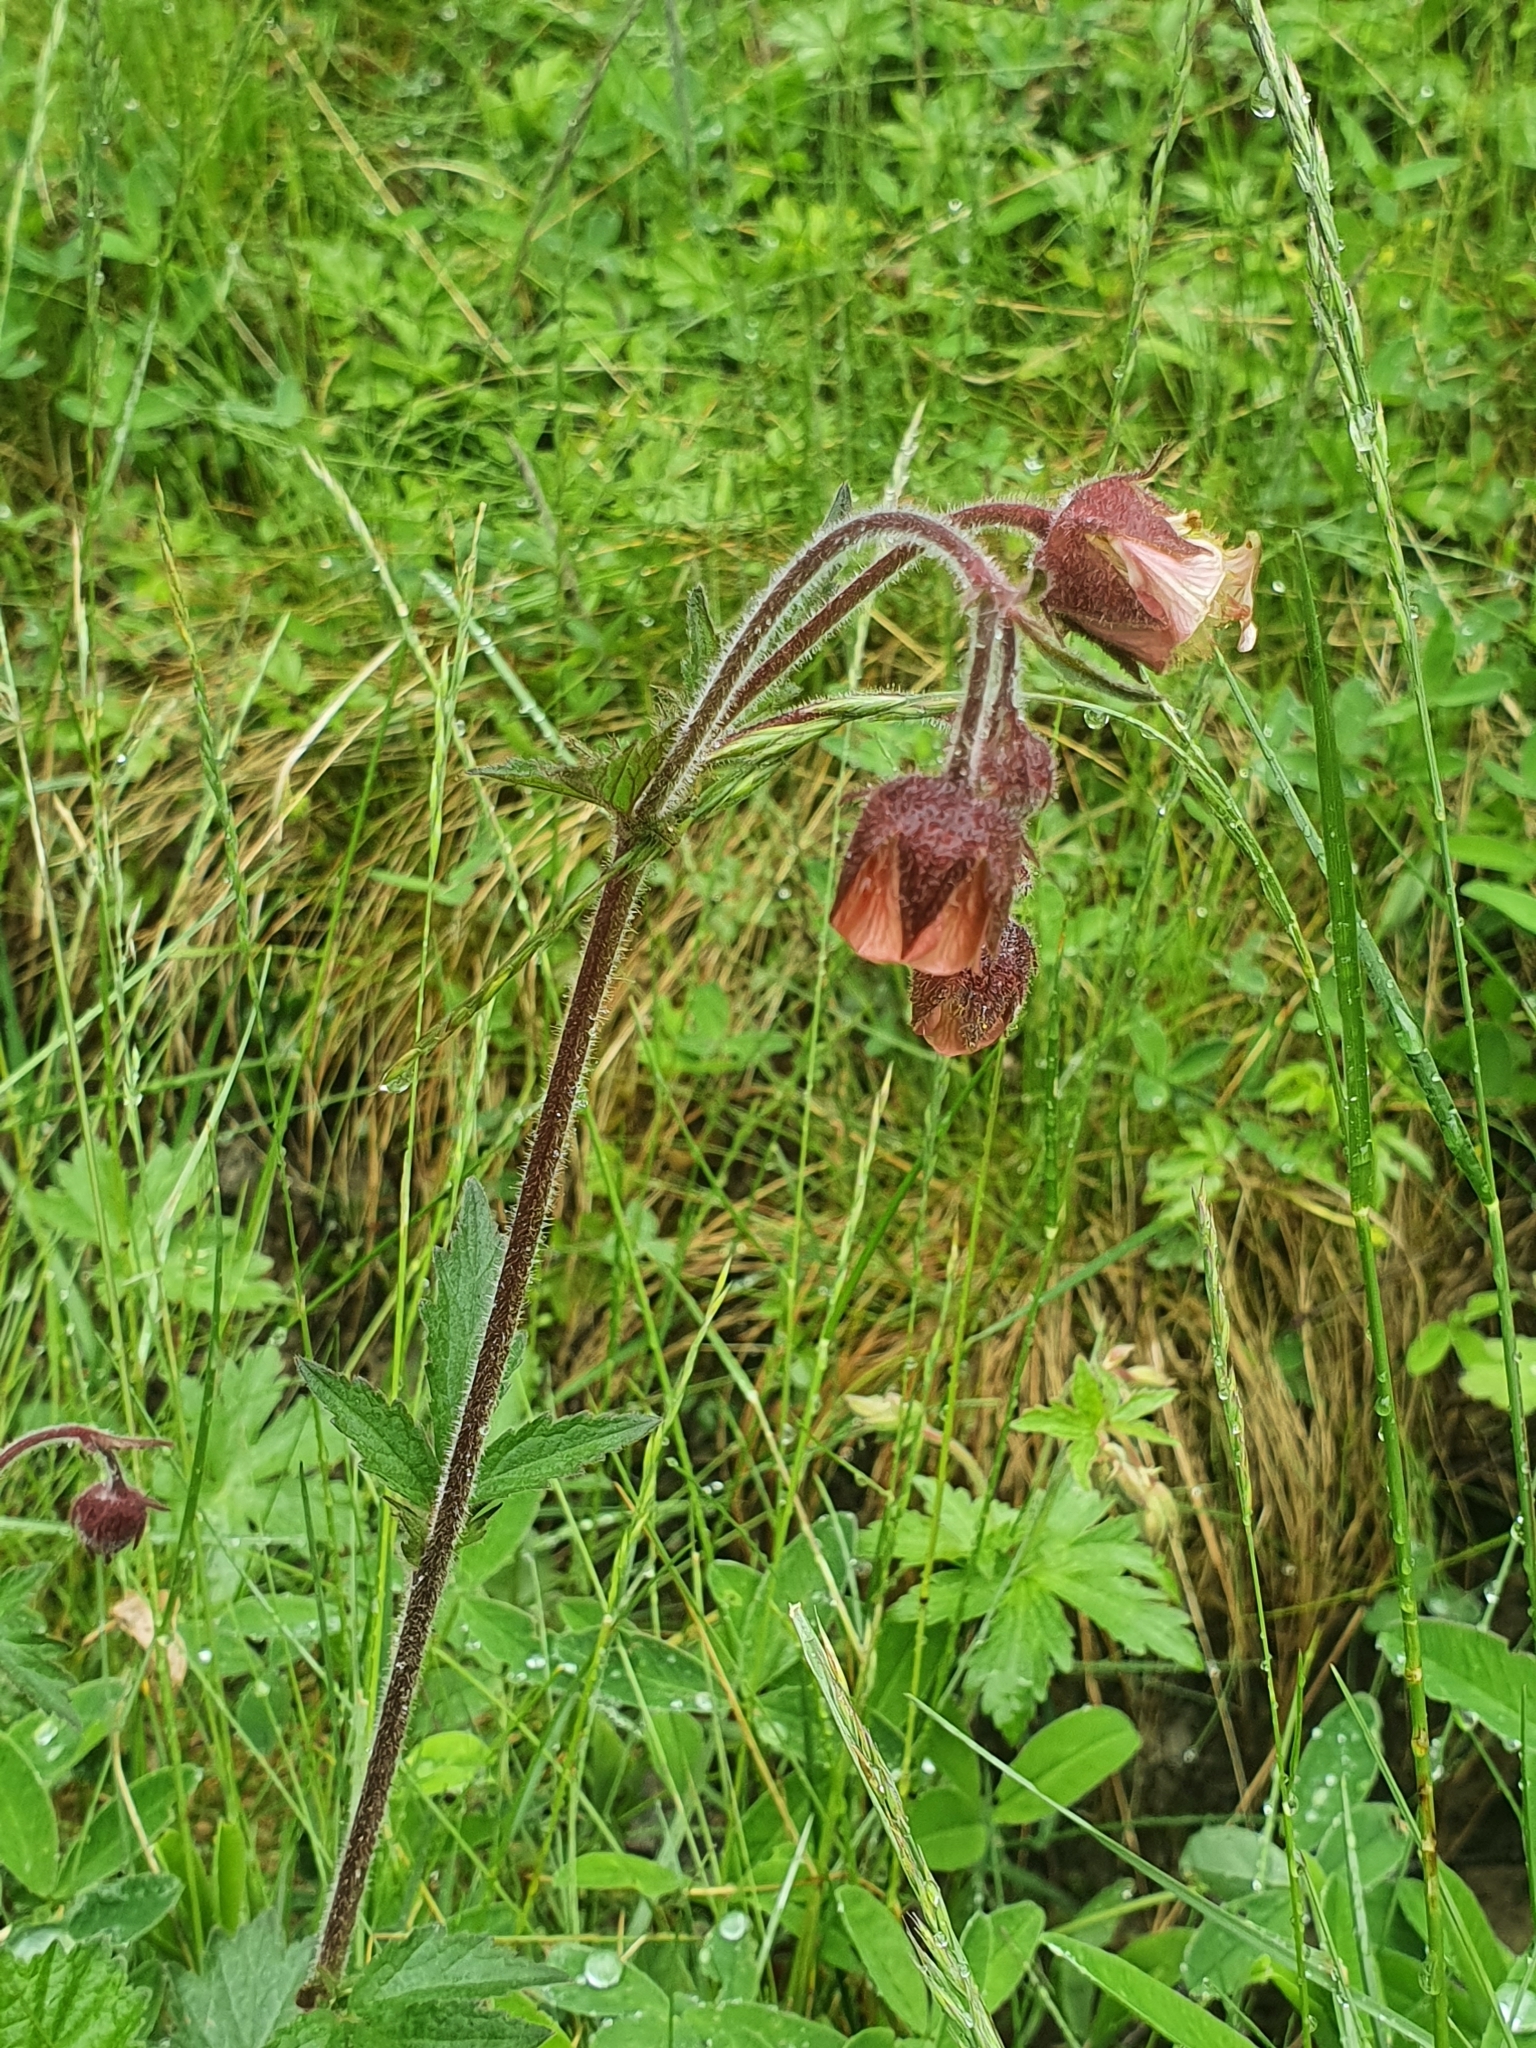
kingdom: Plantae
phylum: Tracheophyta
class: Magnoliopsida
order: Rosales
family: Rosaceae
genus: Geum
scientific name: Geum rivale
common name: Water avens
